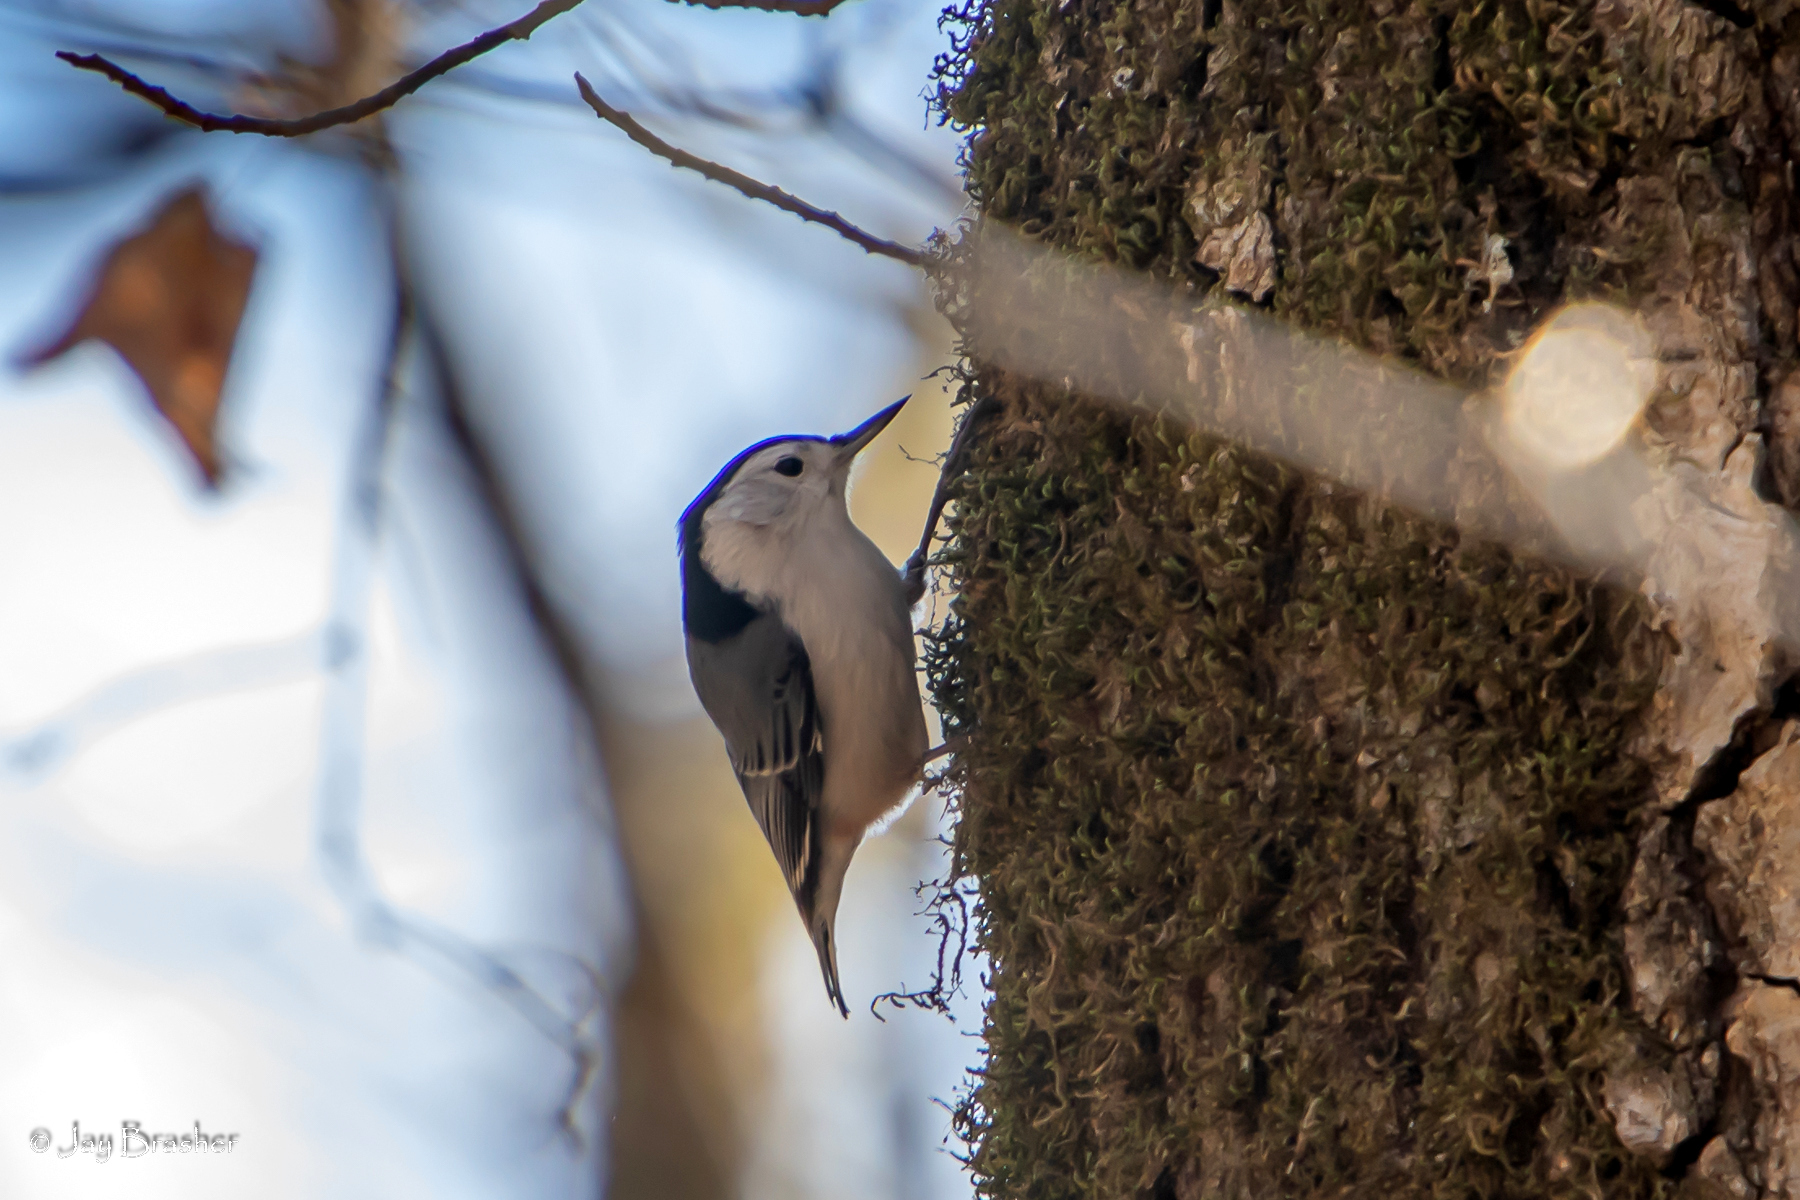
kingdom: Animalia
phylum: Chordata
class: Aves
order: Passeriformes
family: Sittidae
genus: Sitta
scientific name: Sitta carolinensis
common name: White-breasted nuthatch
